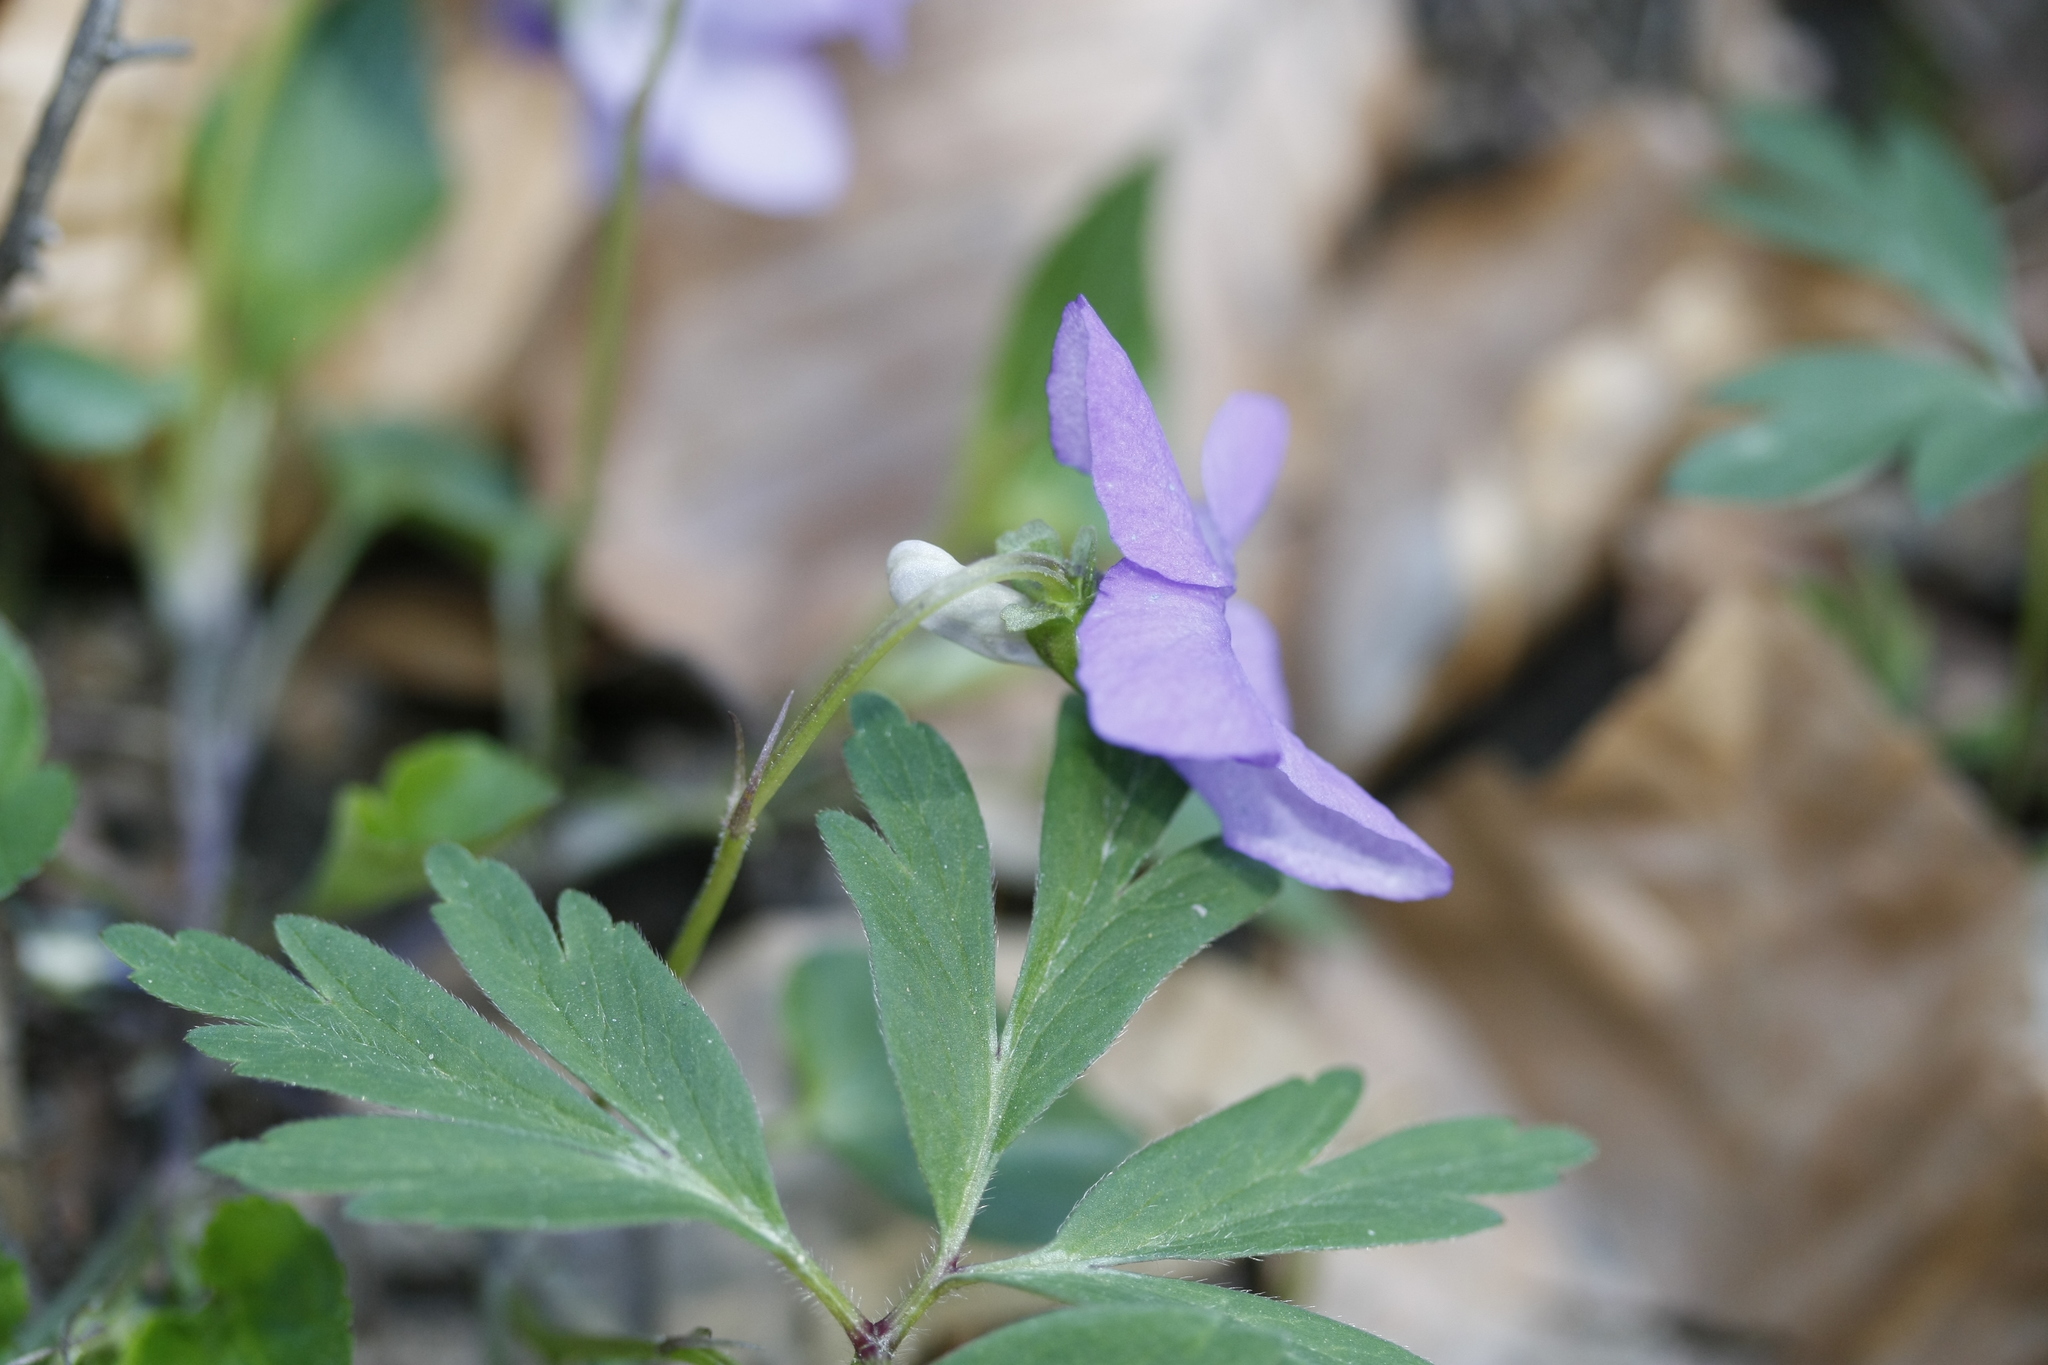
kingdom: Plantae
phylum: Tracheophyta
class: Magnoliopsida
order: Malpighiales
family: Violaceae
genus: Viola
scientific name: Viola riviniana
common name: Common dog-violet
